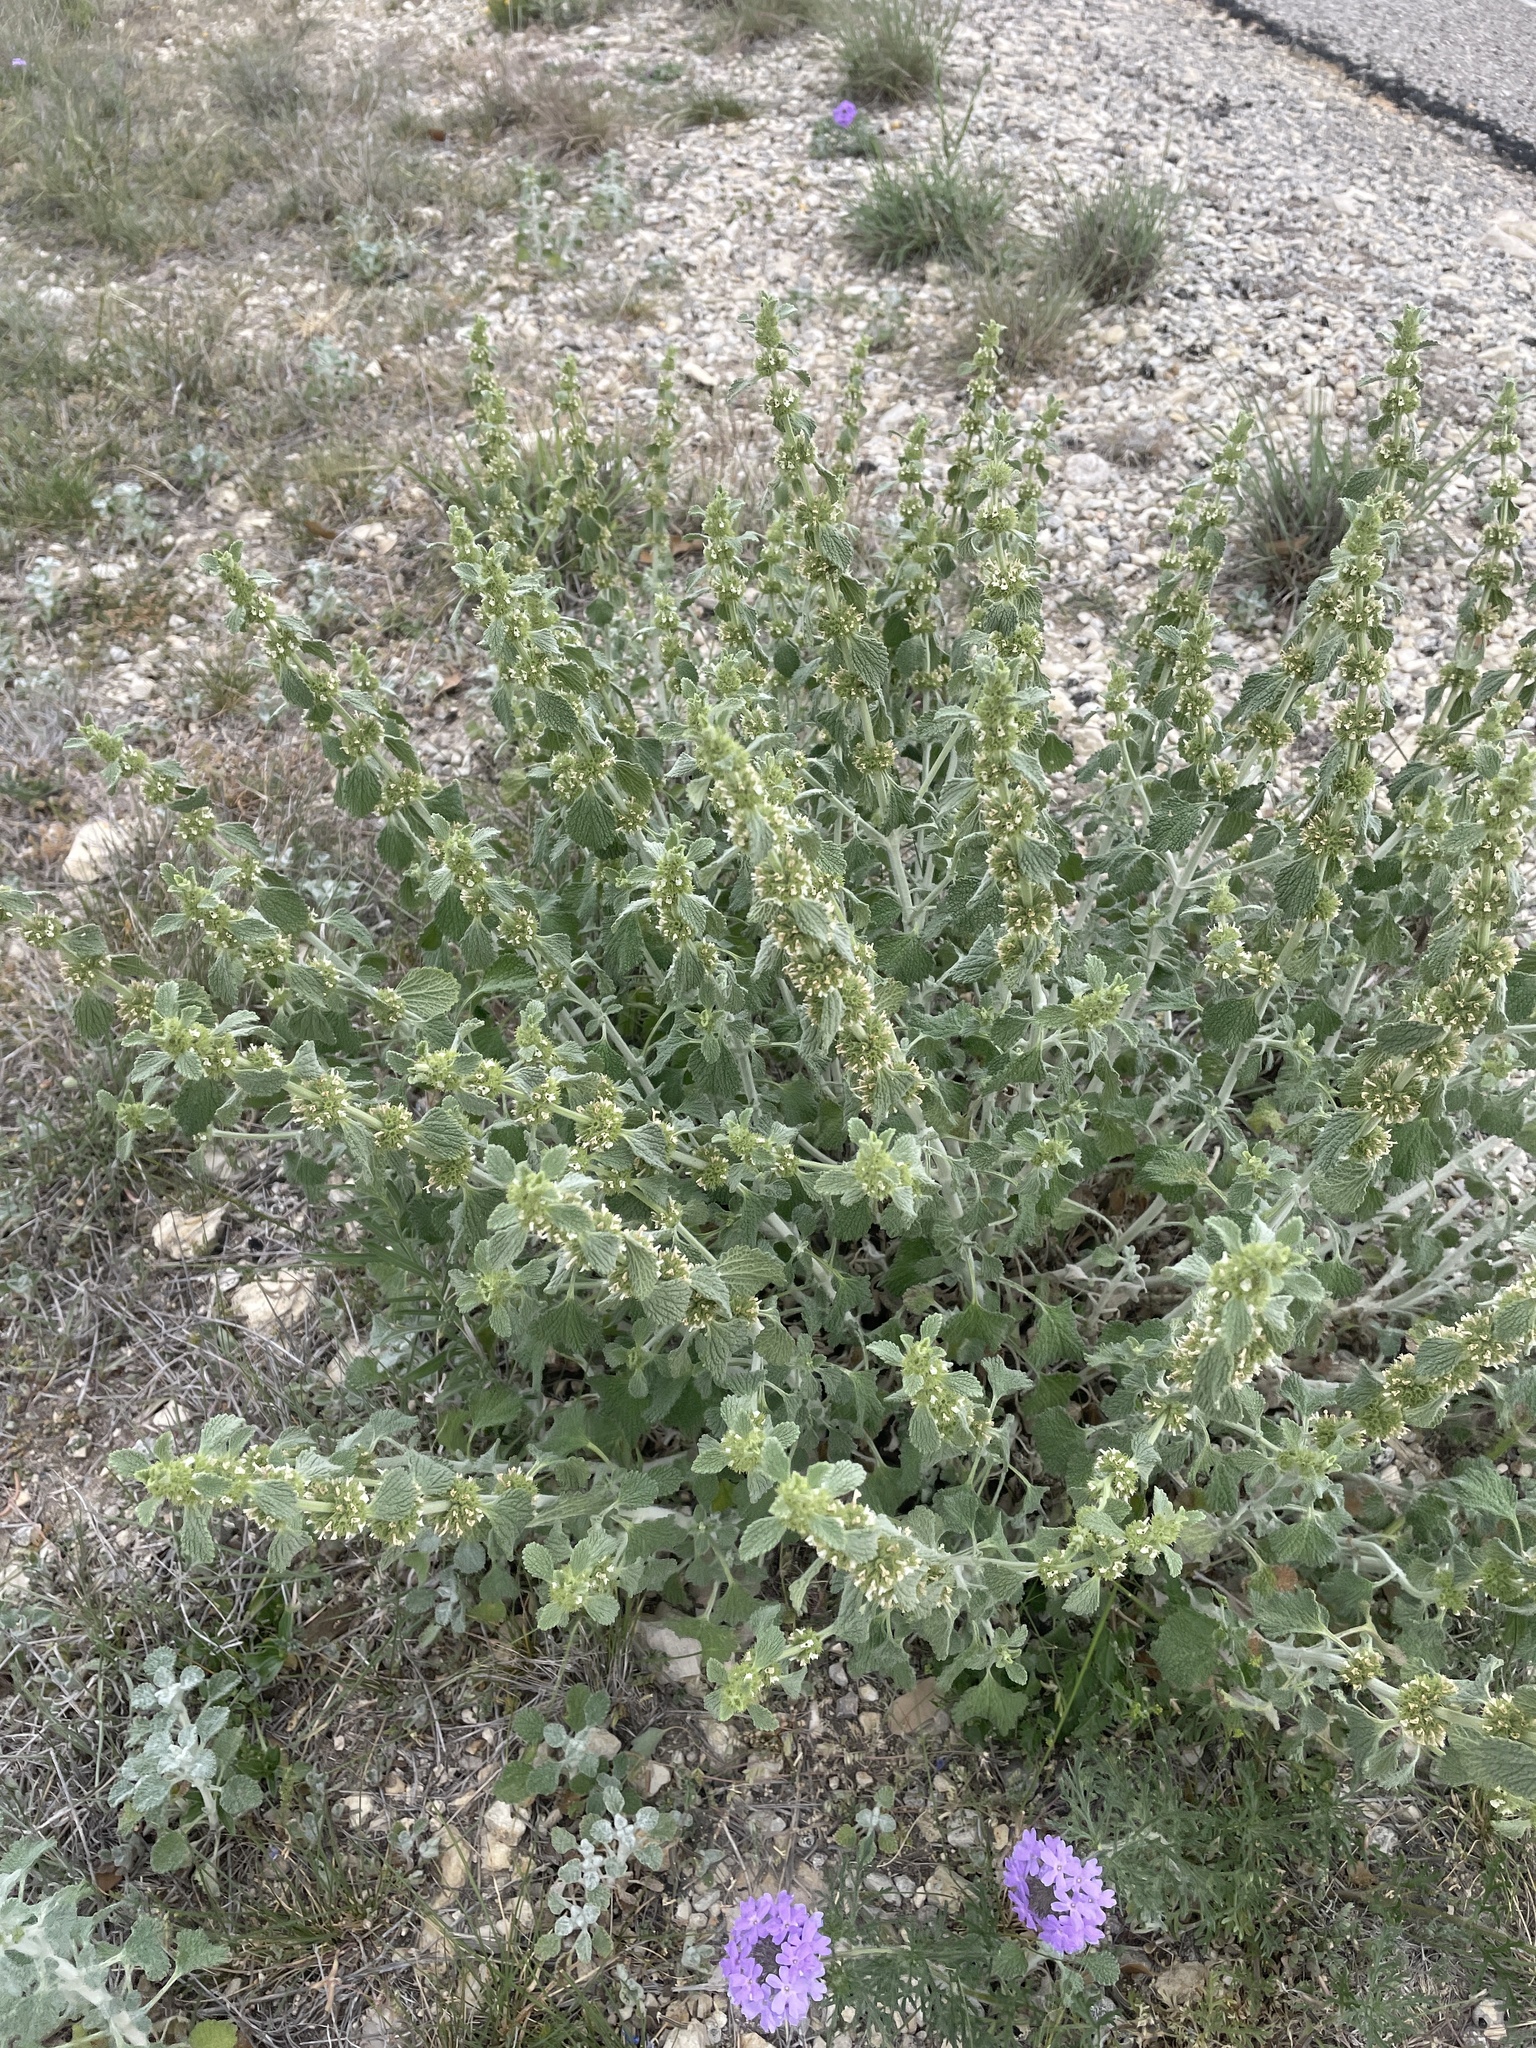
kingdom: Plantae
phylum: Tracheophyta
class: Magnoliopsida
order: Lamiales
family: Lamiaceae
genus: Marrubium
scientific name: Marrubium vulgare
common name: Horehound
